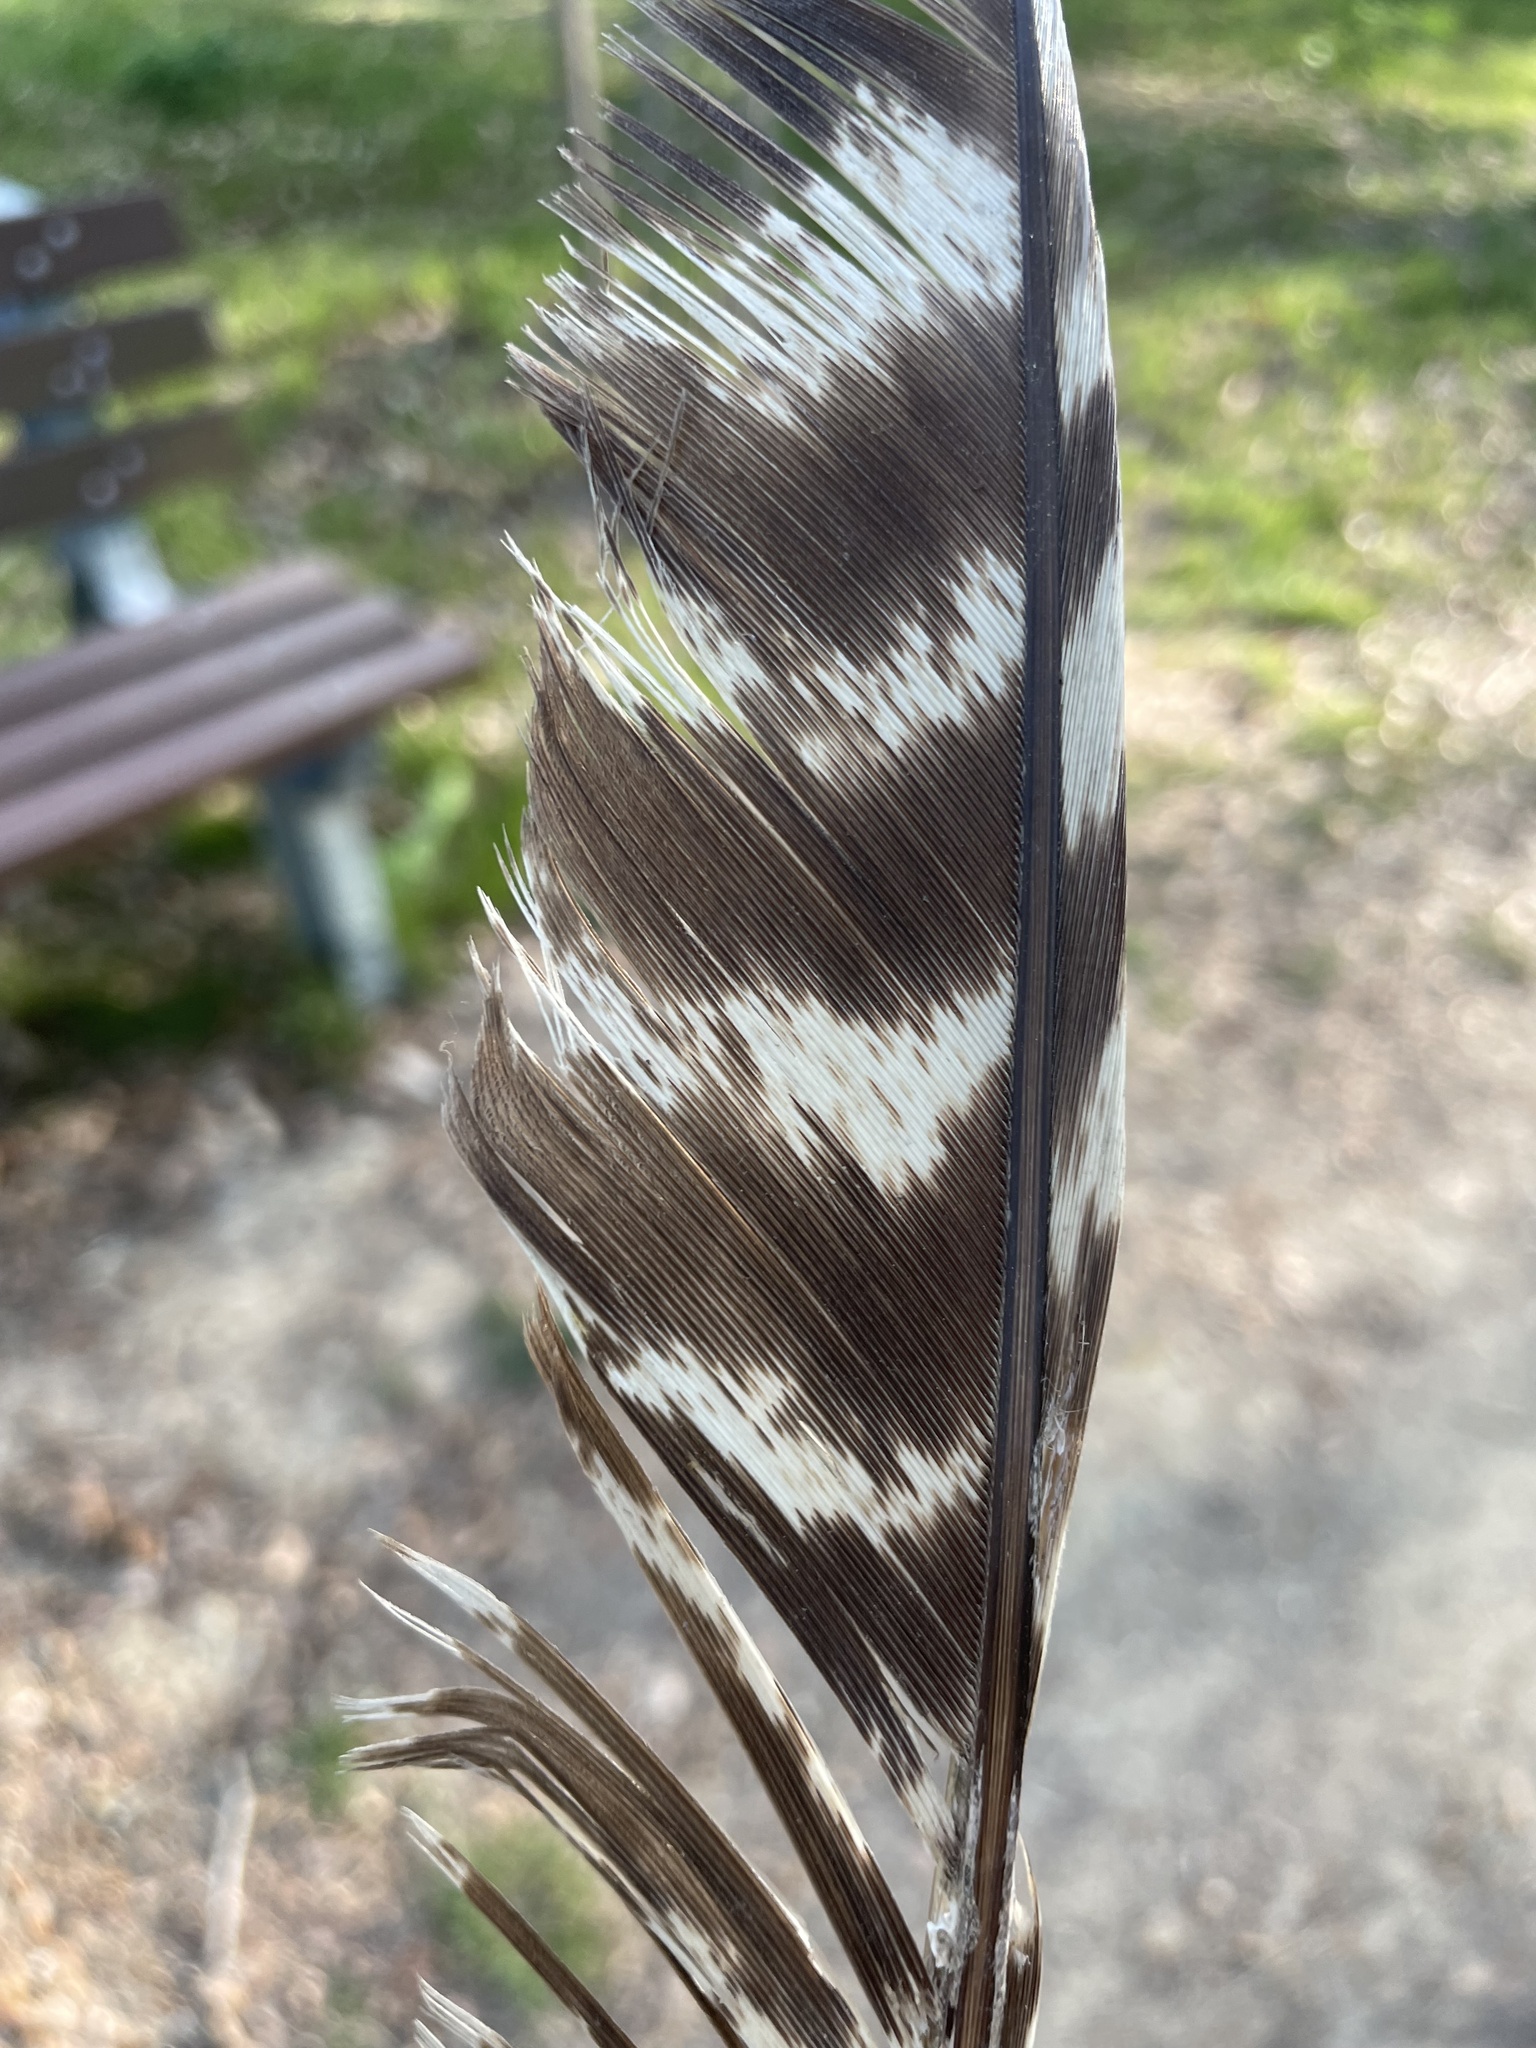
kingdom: Animalia
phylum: Chordata
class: Aves
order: Galliformes
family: Phasianidae
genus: Meleagris
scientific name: Meleagris gallopavo
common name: Wild turkey
